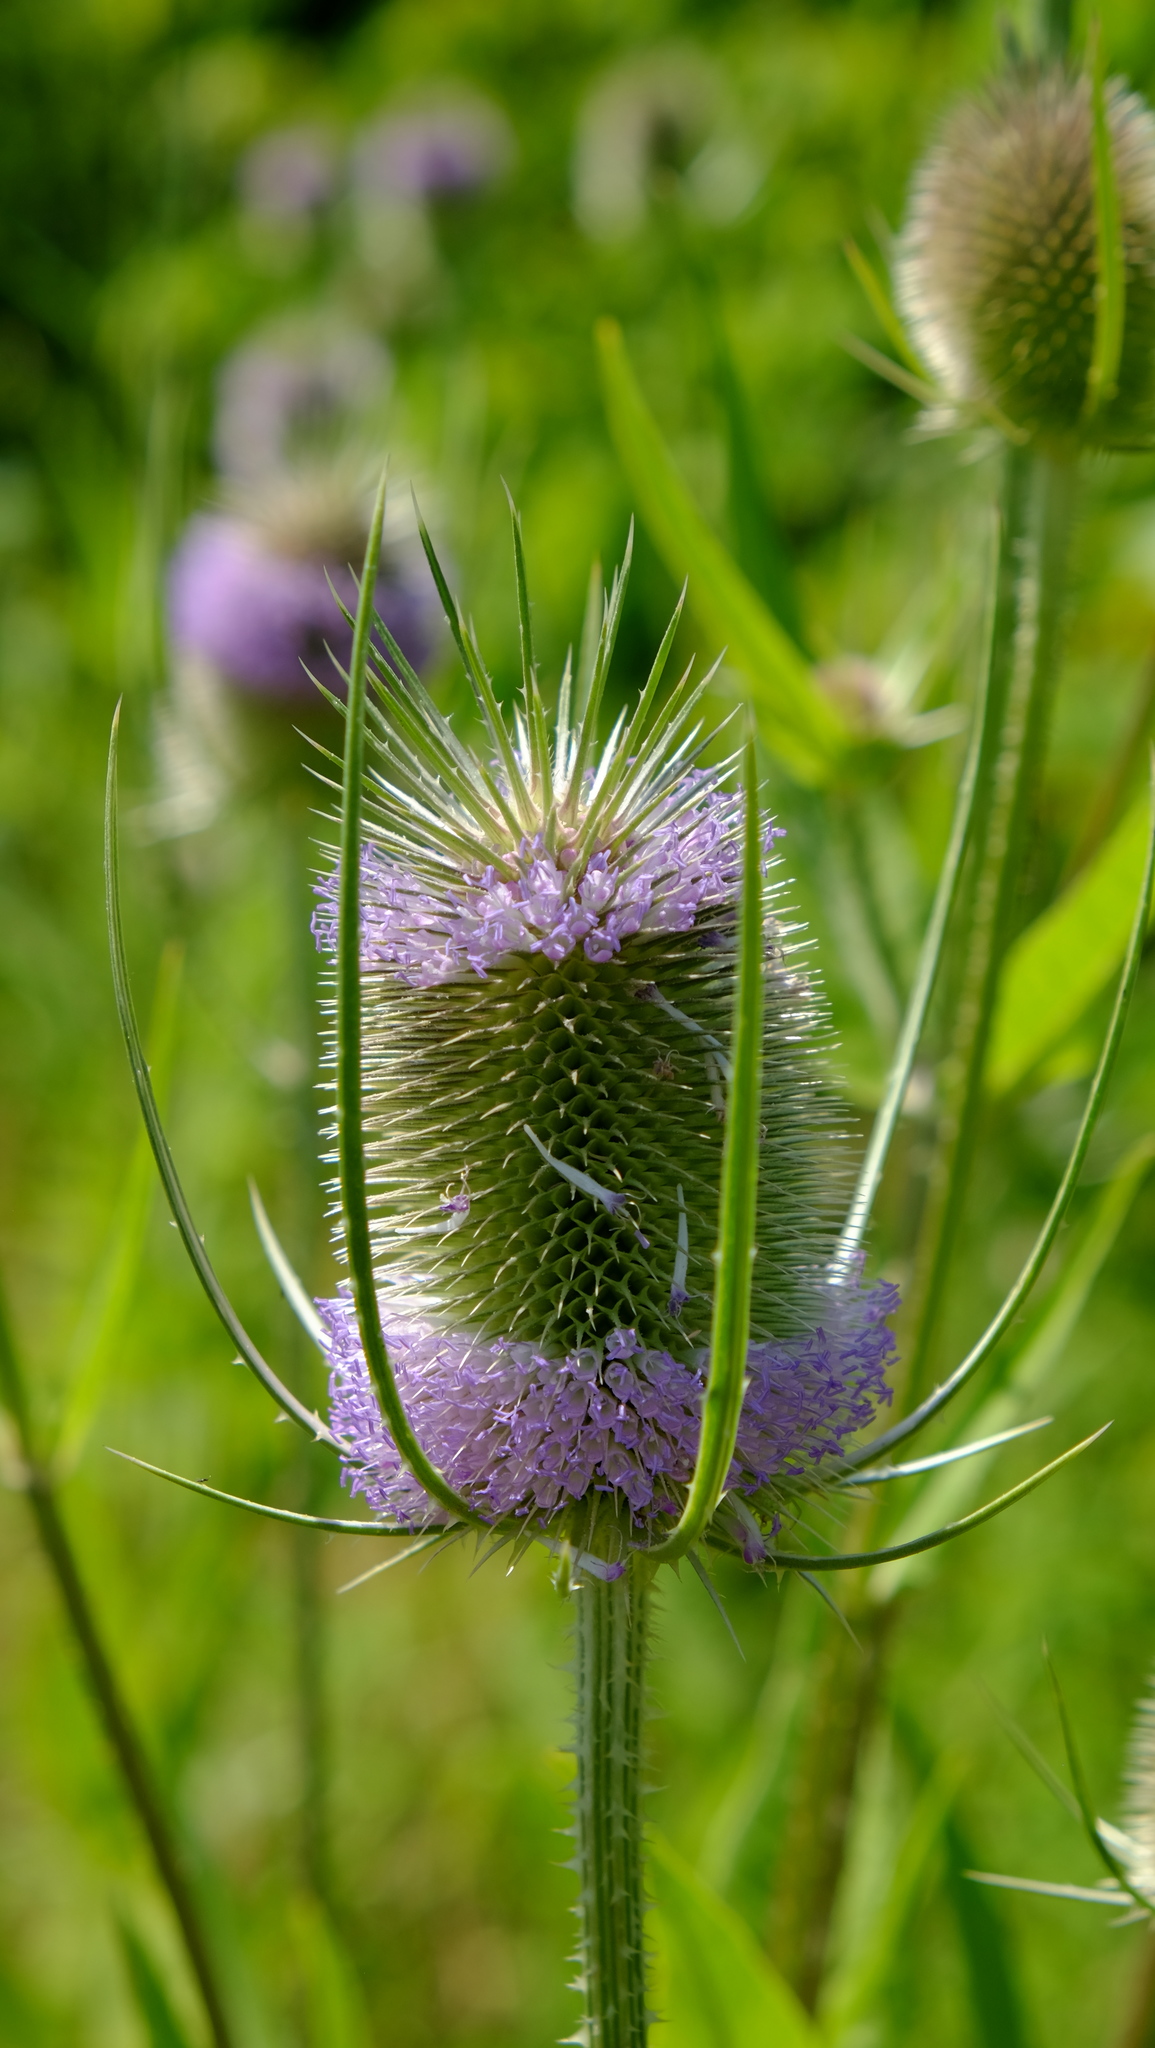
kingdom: Plantae
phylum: Tracheophyta
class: Magnoliopsida
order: Dipsacales
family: Caprifoliaceae
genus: Dipsacus
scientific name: Dipsacus fullonum
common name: Teasel
